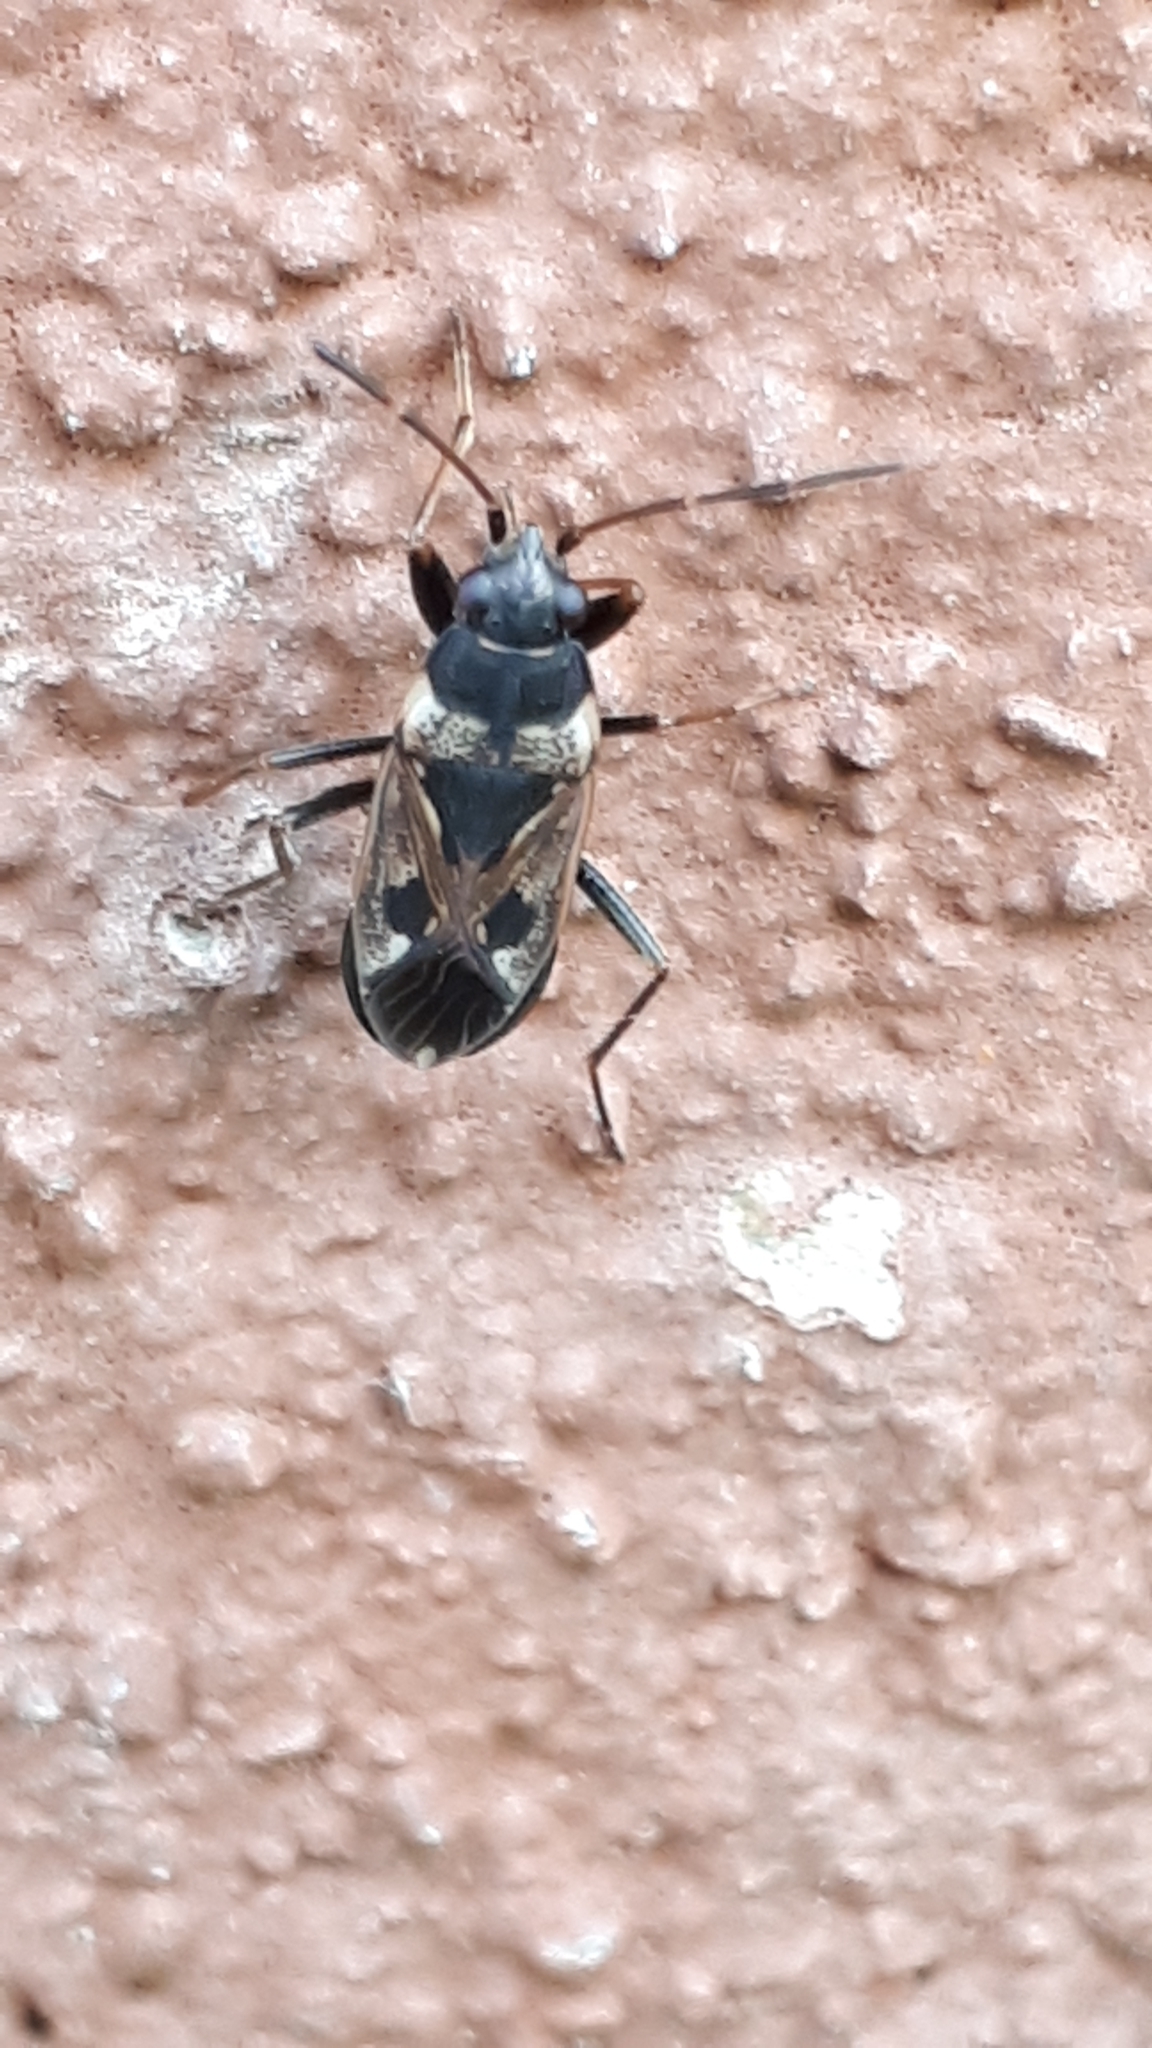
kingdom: Animalia
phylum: Arthropoda
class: Insecta
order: Hemiptera
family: Rhyparochromidae
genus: Rhyparochromus
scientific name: Rhyparochromus vulgaris
